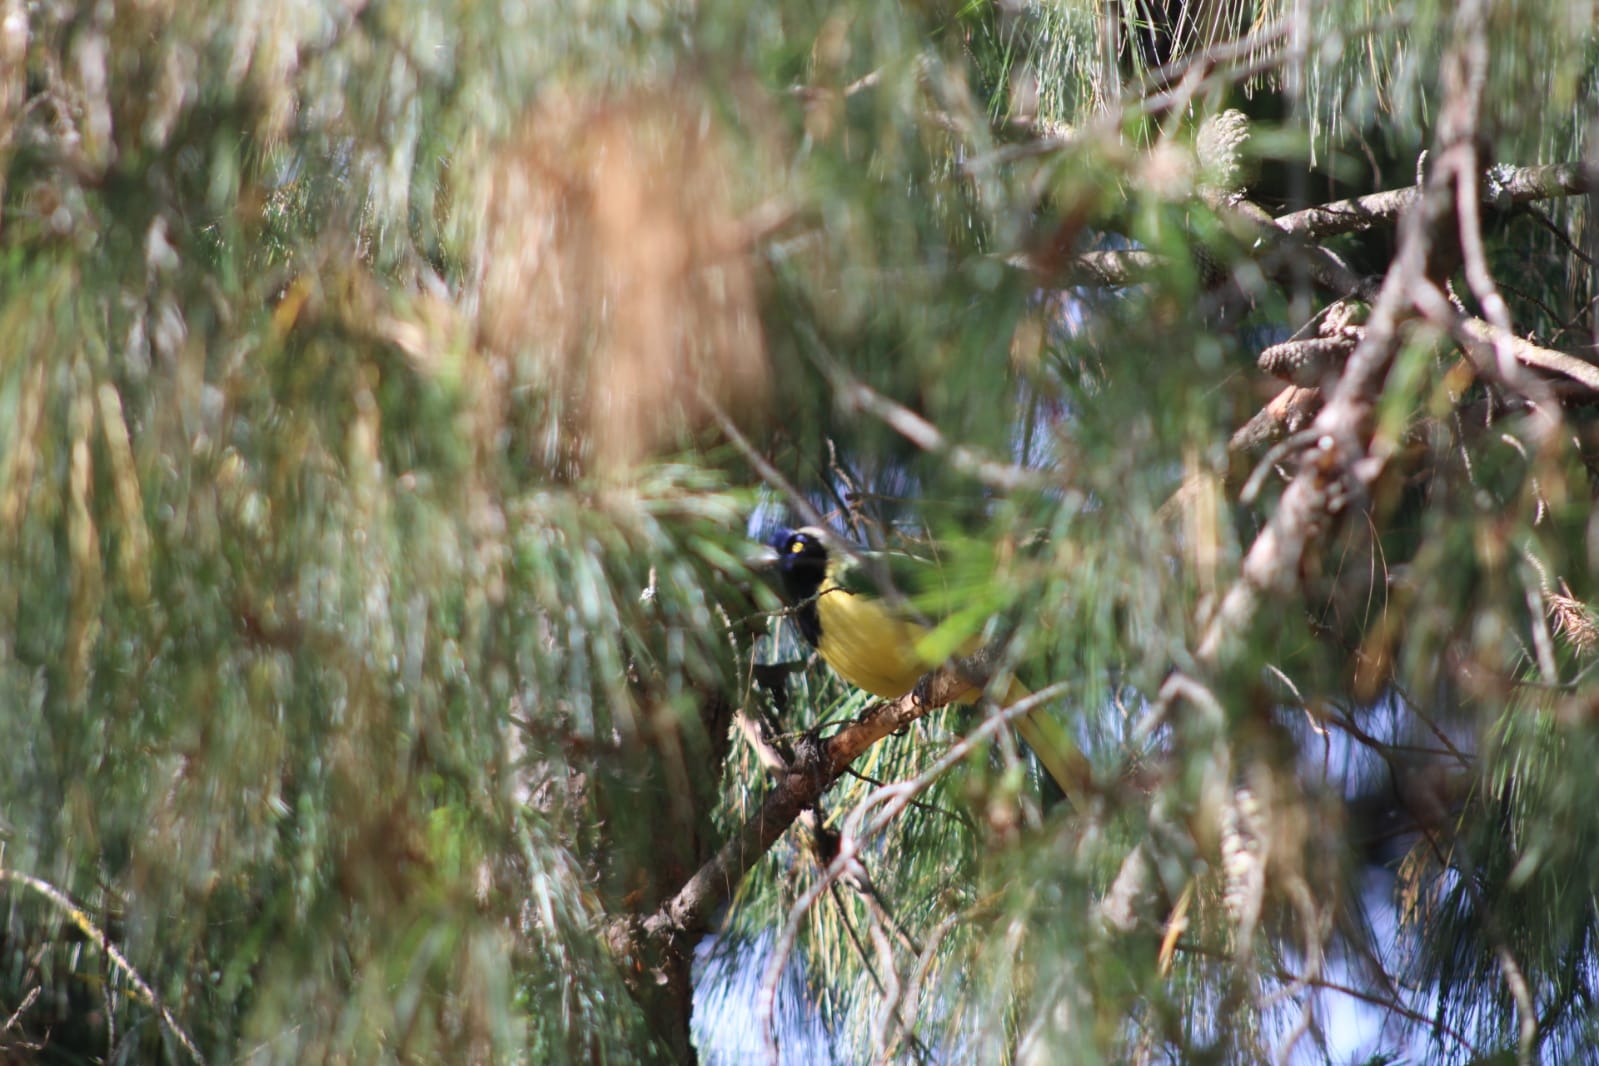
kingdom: Animalia
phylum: Chordata
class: Aves
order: Passeriformes
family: Corvidae
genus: Cyanocorax
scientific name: Cyanocorax yncas
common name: Green jay
